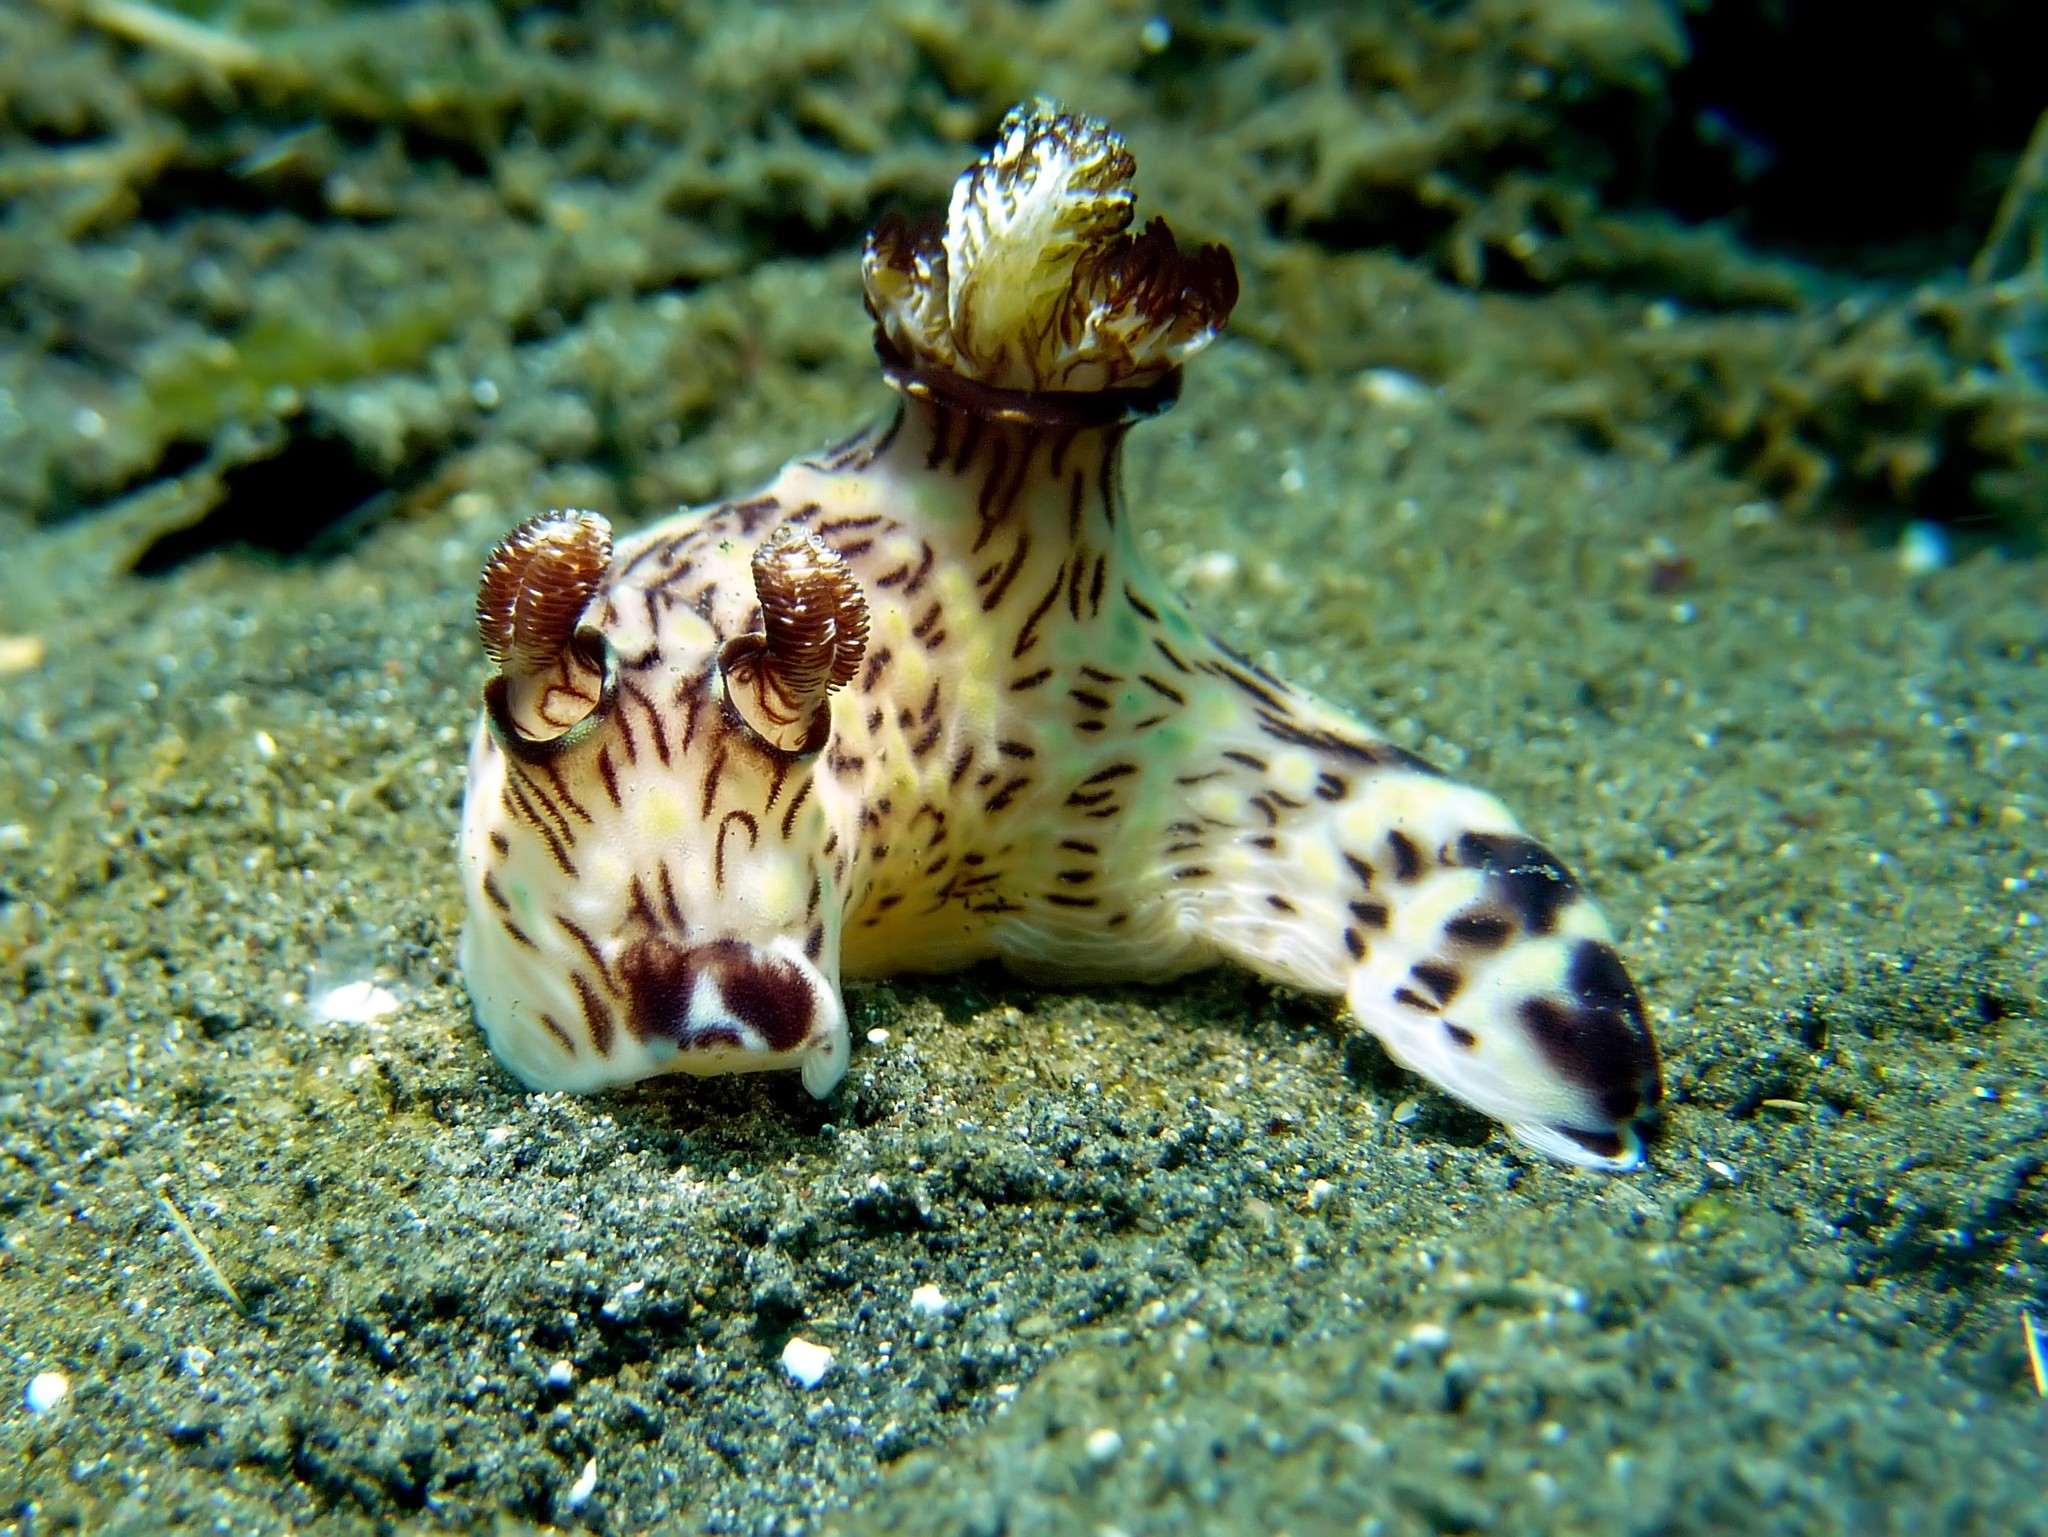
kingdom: Animalia
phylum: Mollusca
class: Gastropoda
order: Nudibranchia
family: Discodorididae
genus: Jorunna
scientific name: Jorunna rubescens
